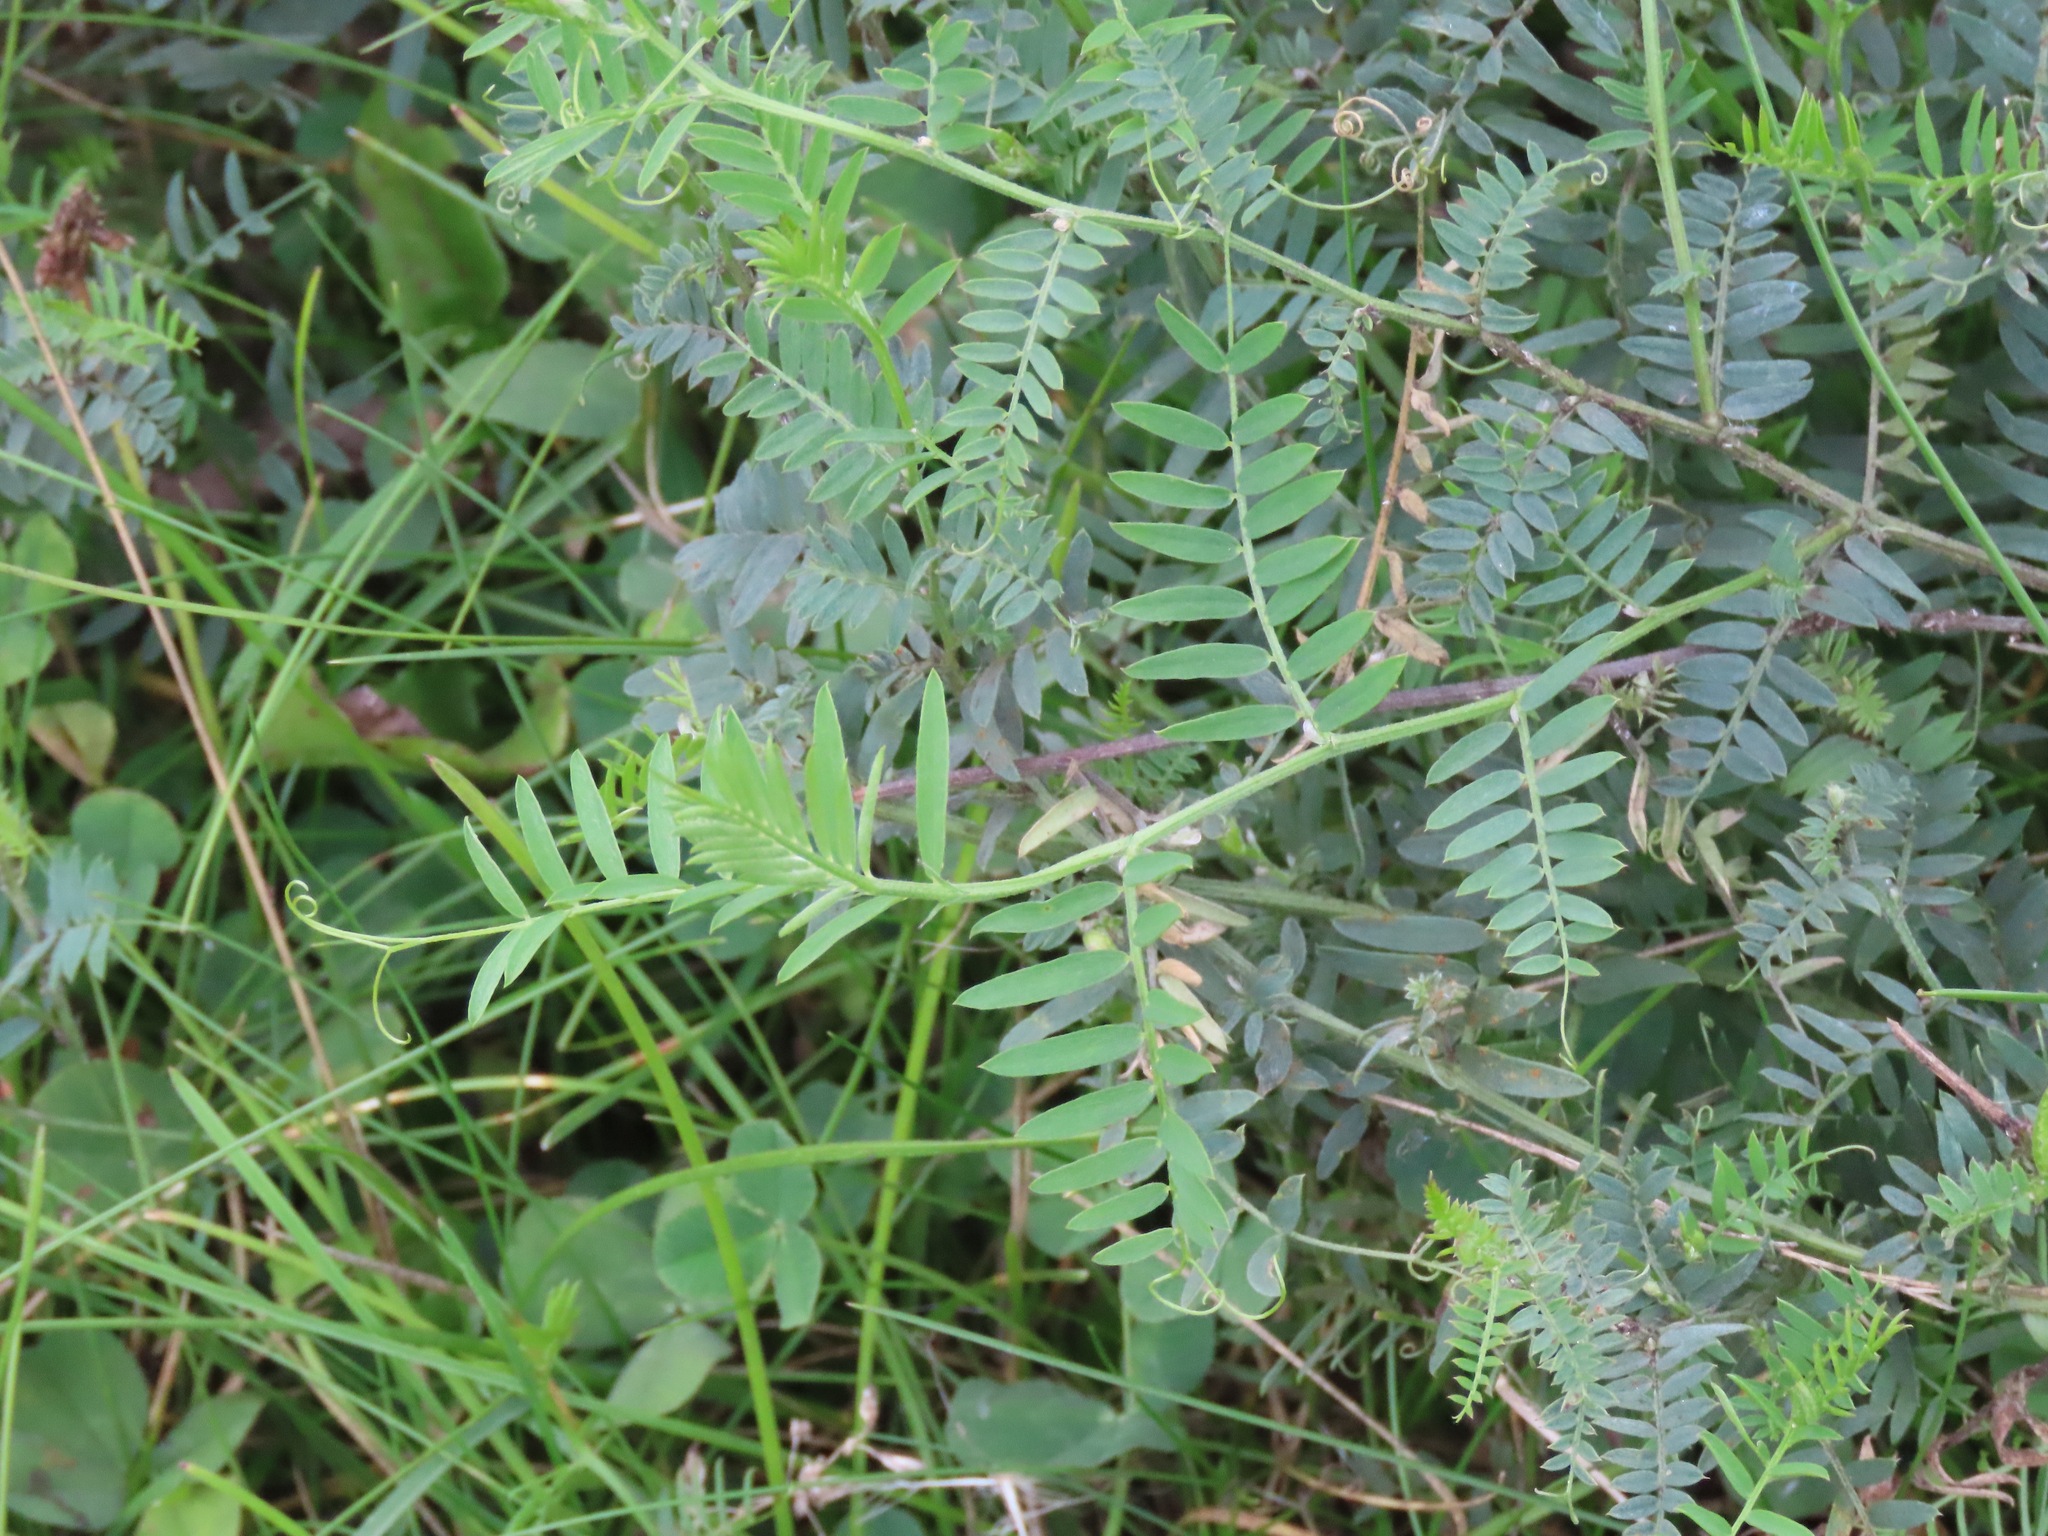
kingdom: Plantae
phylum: Tracheophyta
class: Magnoliopsida
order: Fabales
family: Fabaceae
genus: Vicia
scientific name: Vicia cracca
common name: Bird vetch
